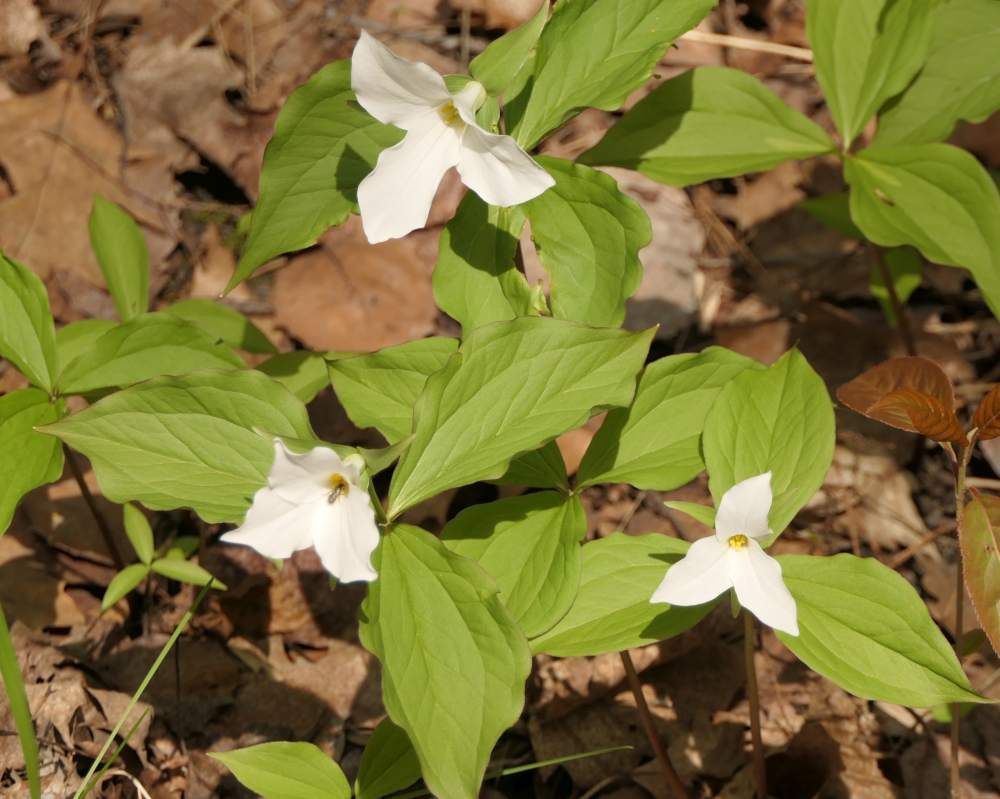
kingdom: Plantae
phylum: Tracheophyta
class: Liliopsida
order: Liliales
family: Melanthiaceae
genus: Trillium
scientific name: Trillium grandiflorum
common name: Great white trillium
